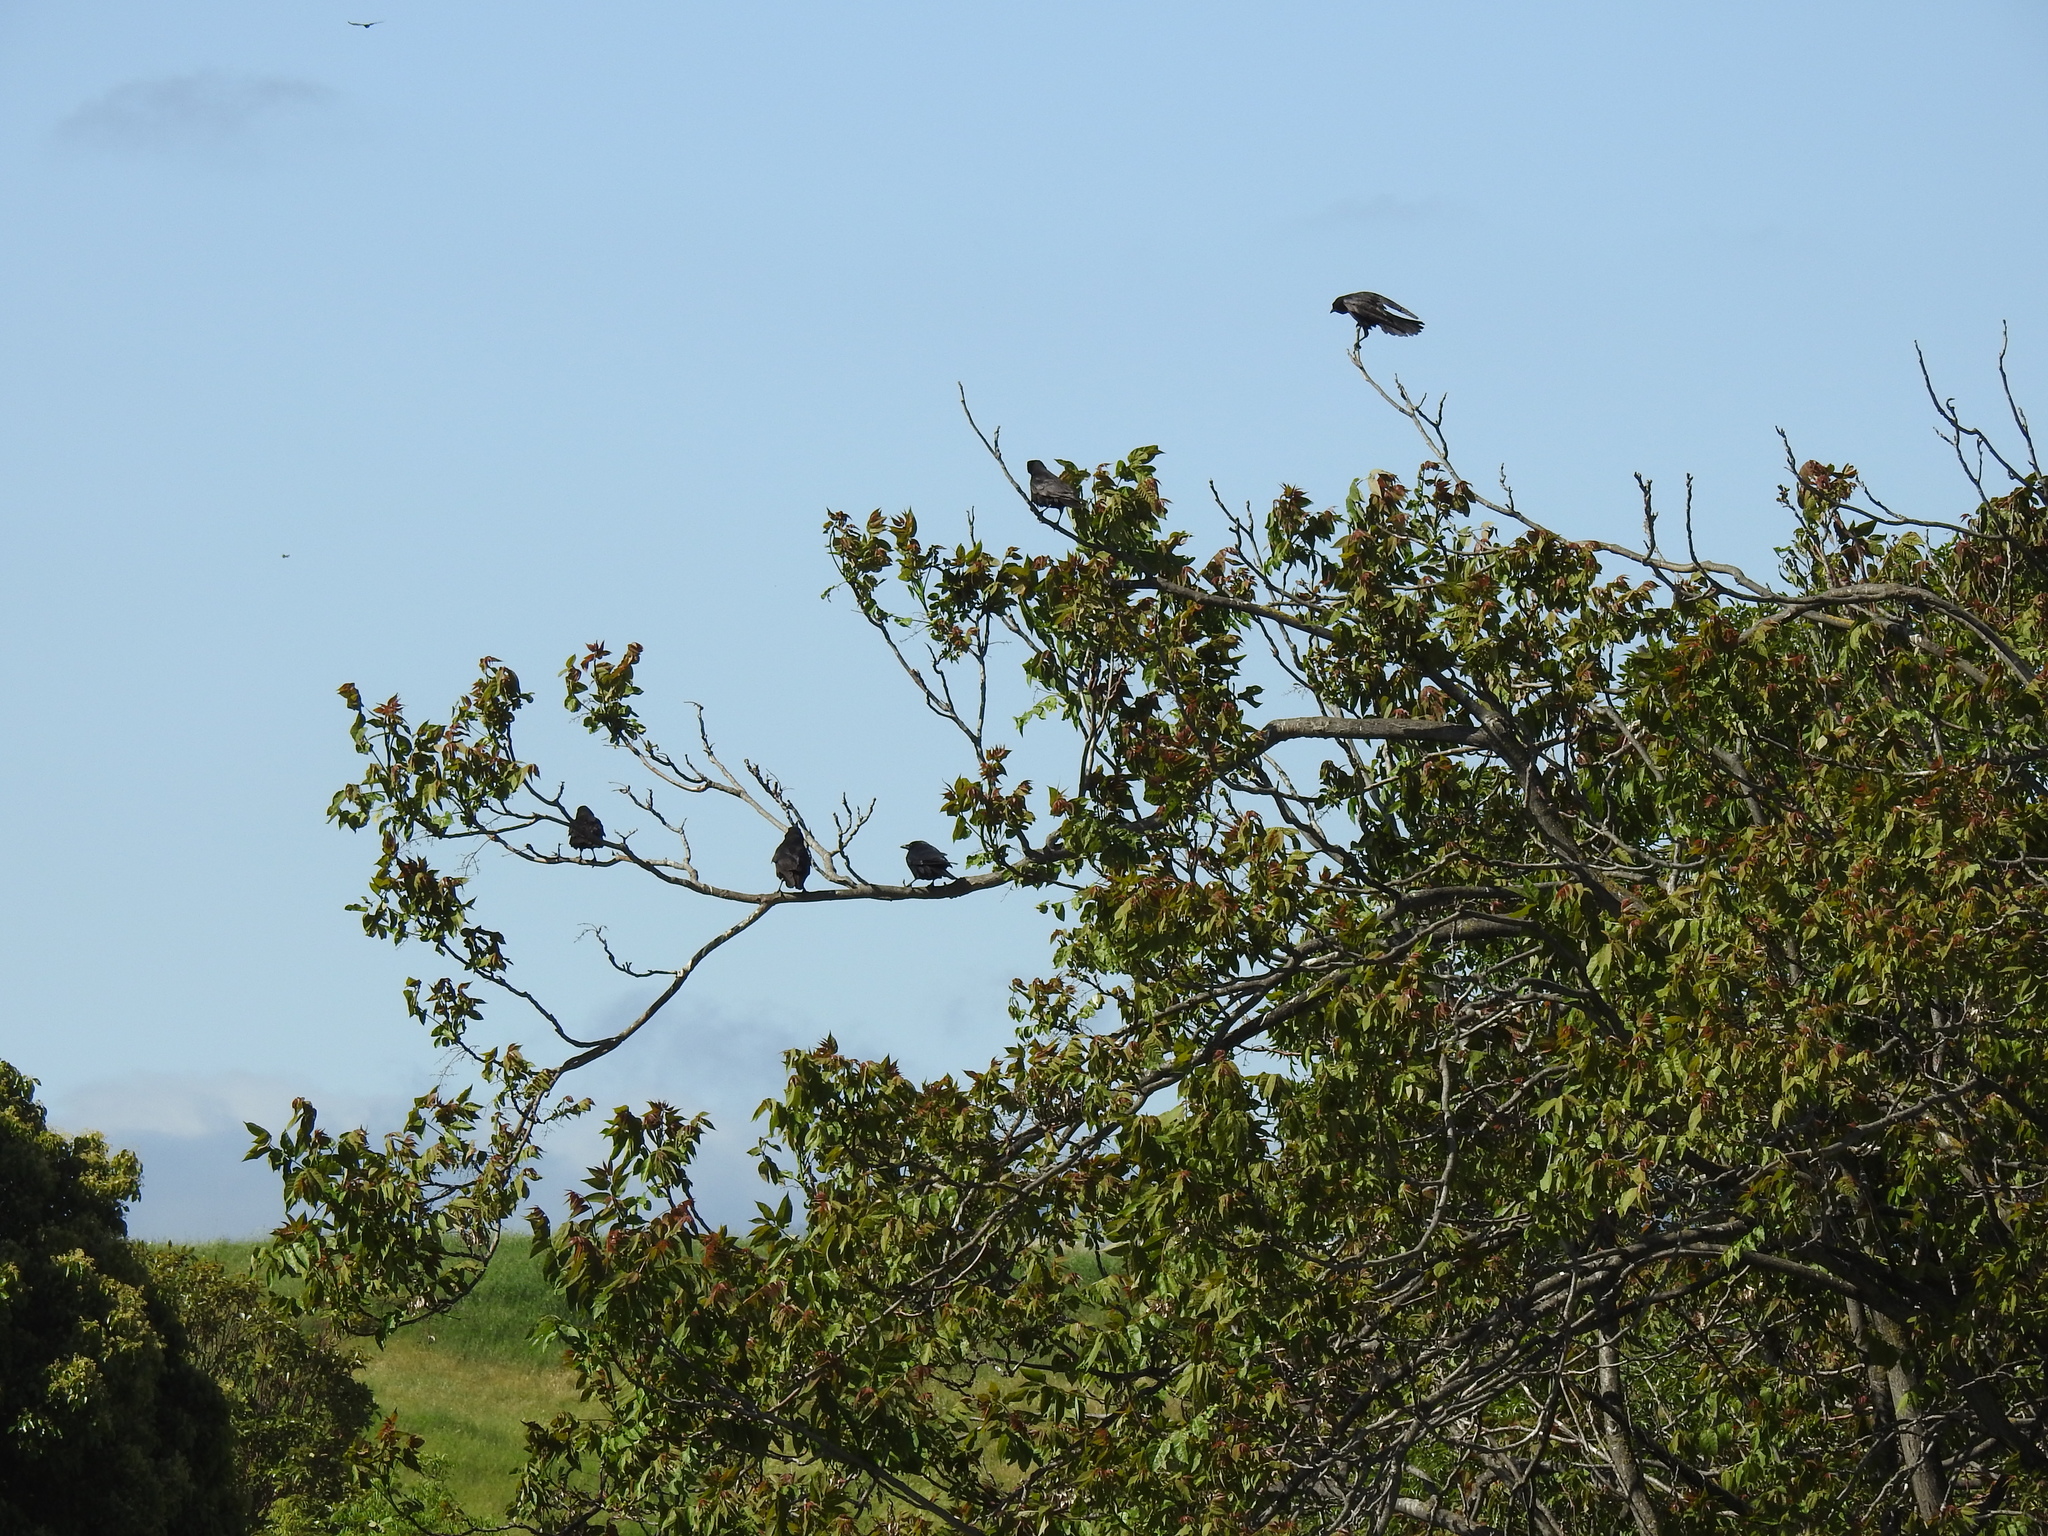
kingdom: Animalia
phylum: Chordata
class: Aves
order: Passeriformes
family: Corvidae
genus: Corvus
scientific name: Corvus brachyrhynchos
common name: American crow
